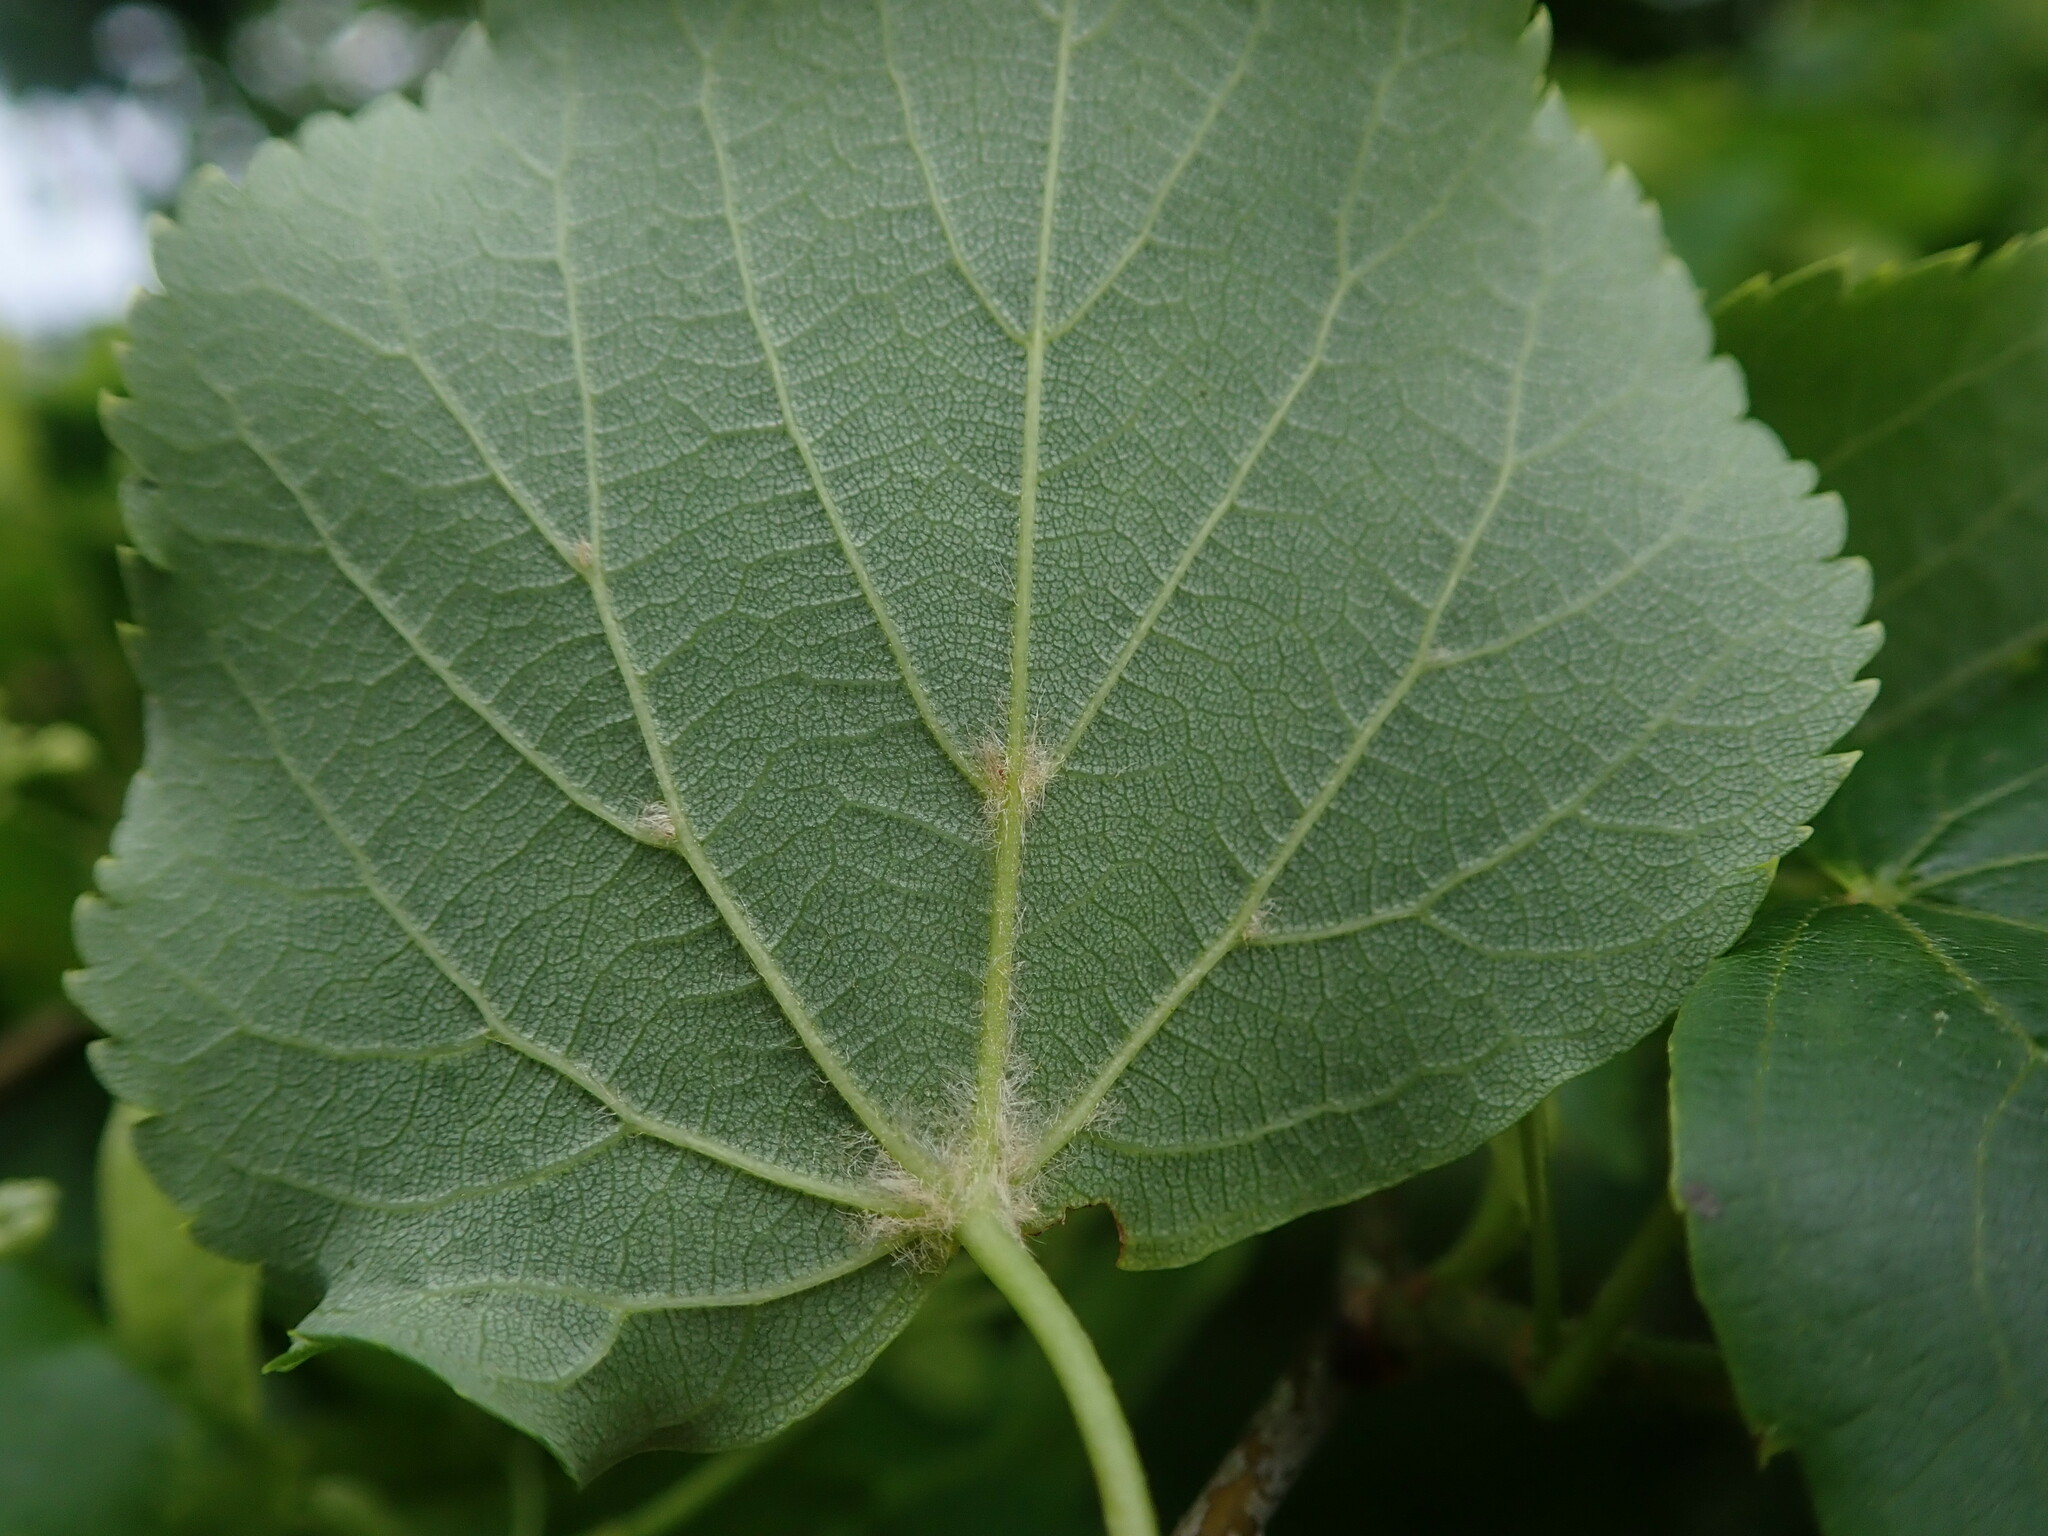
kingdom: Plantae
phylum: Tracheophyta
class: Magnoliopsida
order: Malvales
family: Malvaceae
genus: Tilia
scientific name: Tilia cordata
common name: Small-leaved lime
